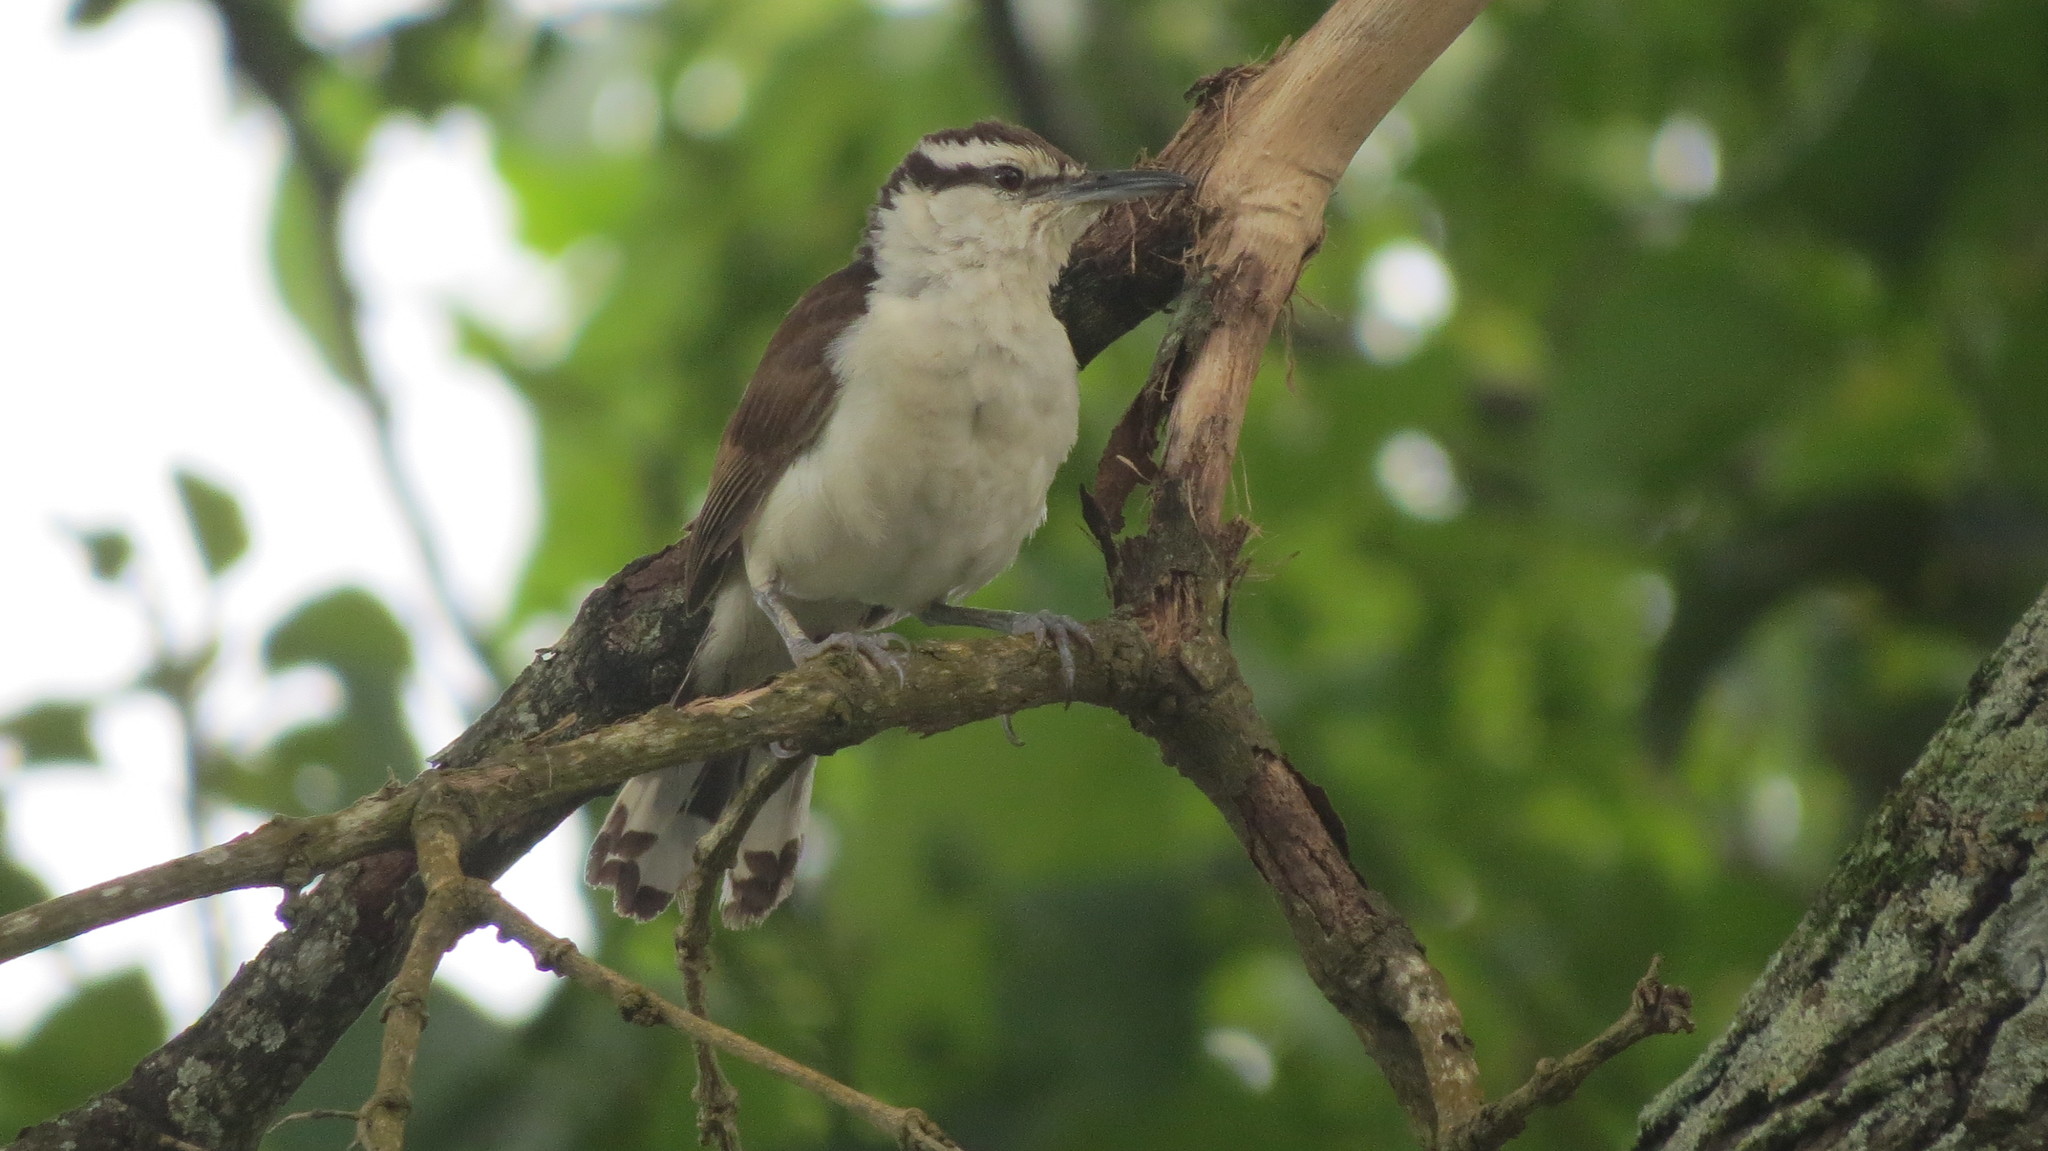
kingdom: Animalia
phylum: Chordata
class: Aves
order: Passeriformes
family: Troglodytidae
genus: Campylorhynchus
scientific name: Campylorhynchus griseus
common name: Bicolored wren
